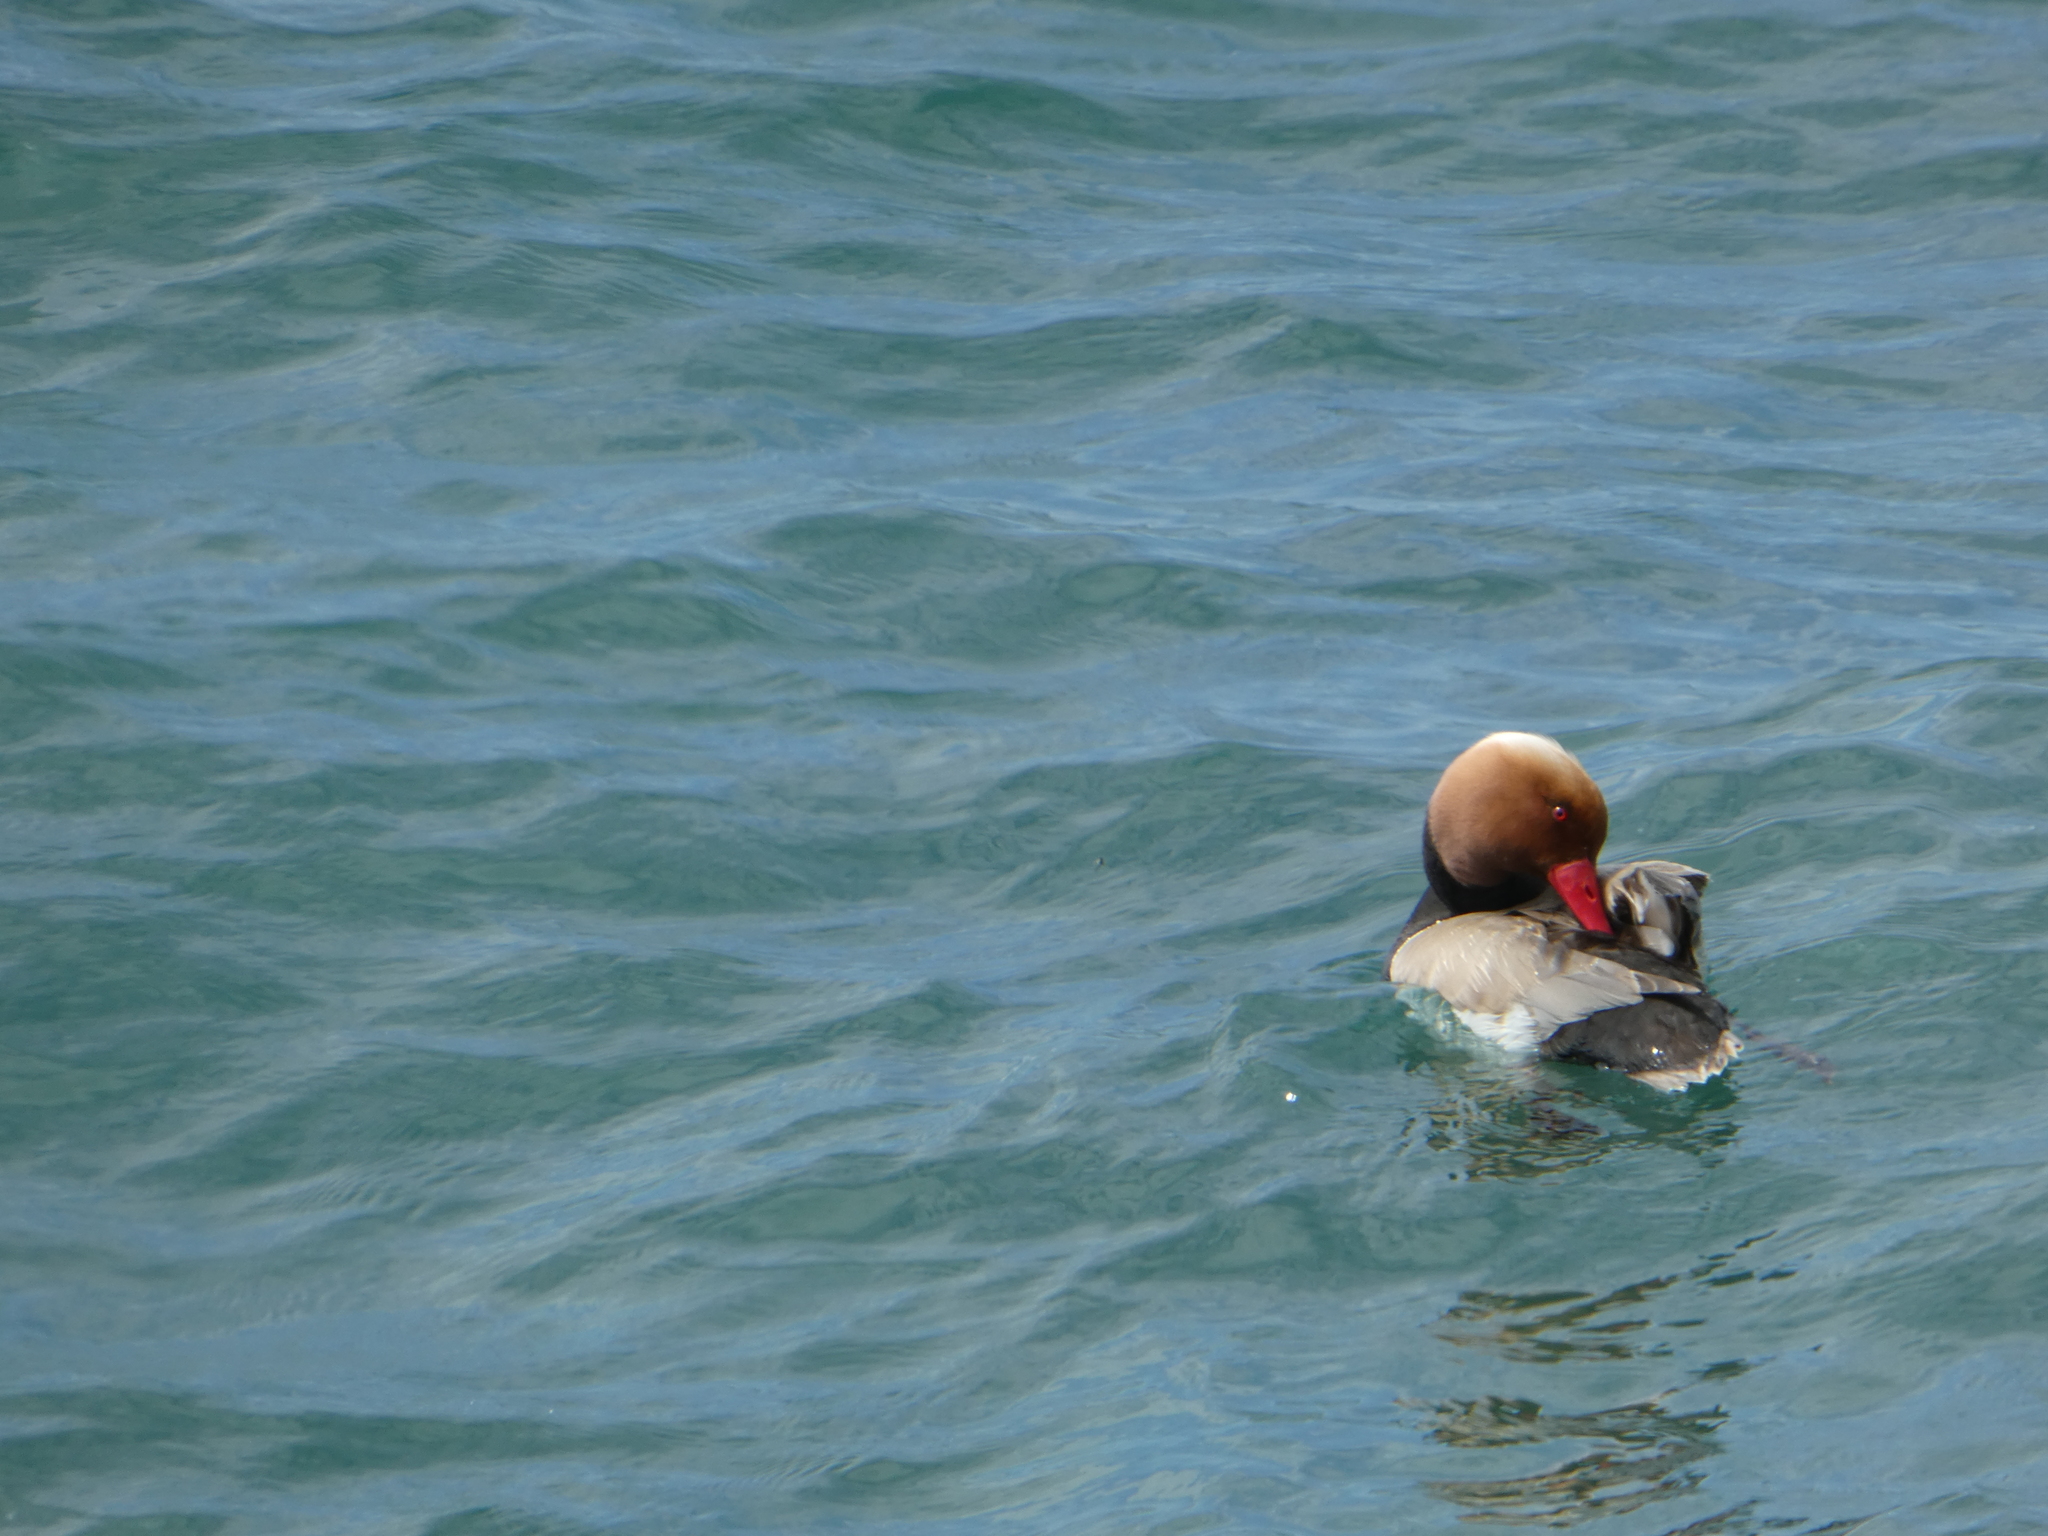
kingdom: Animalia
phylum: Chordata
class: Aves
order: Anseriformes
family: Anatidae
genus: Netta
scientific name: Netta rufina
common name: Red-crested pochard
